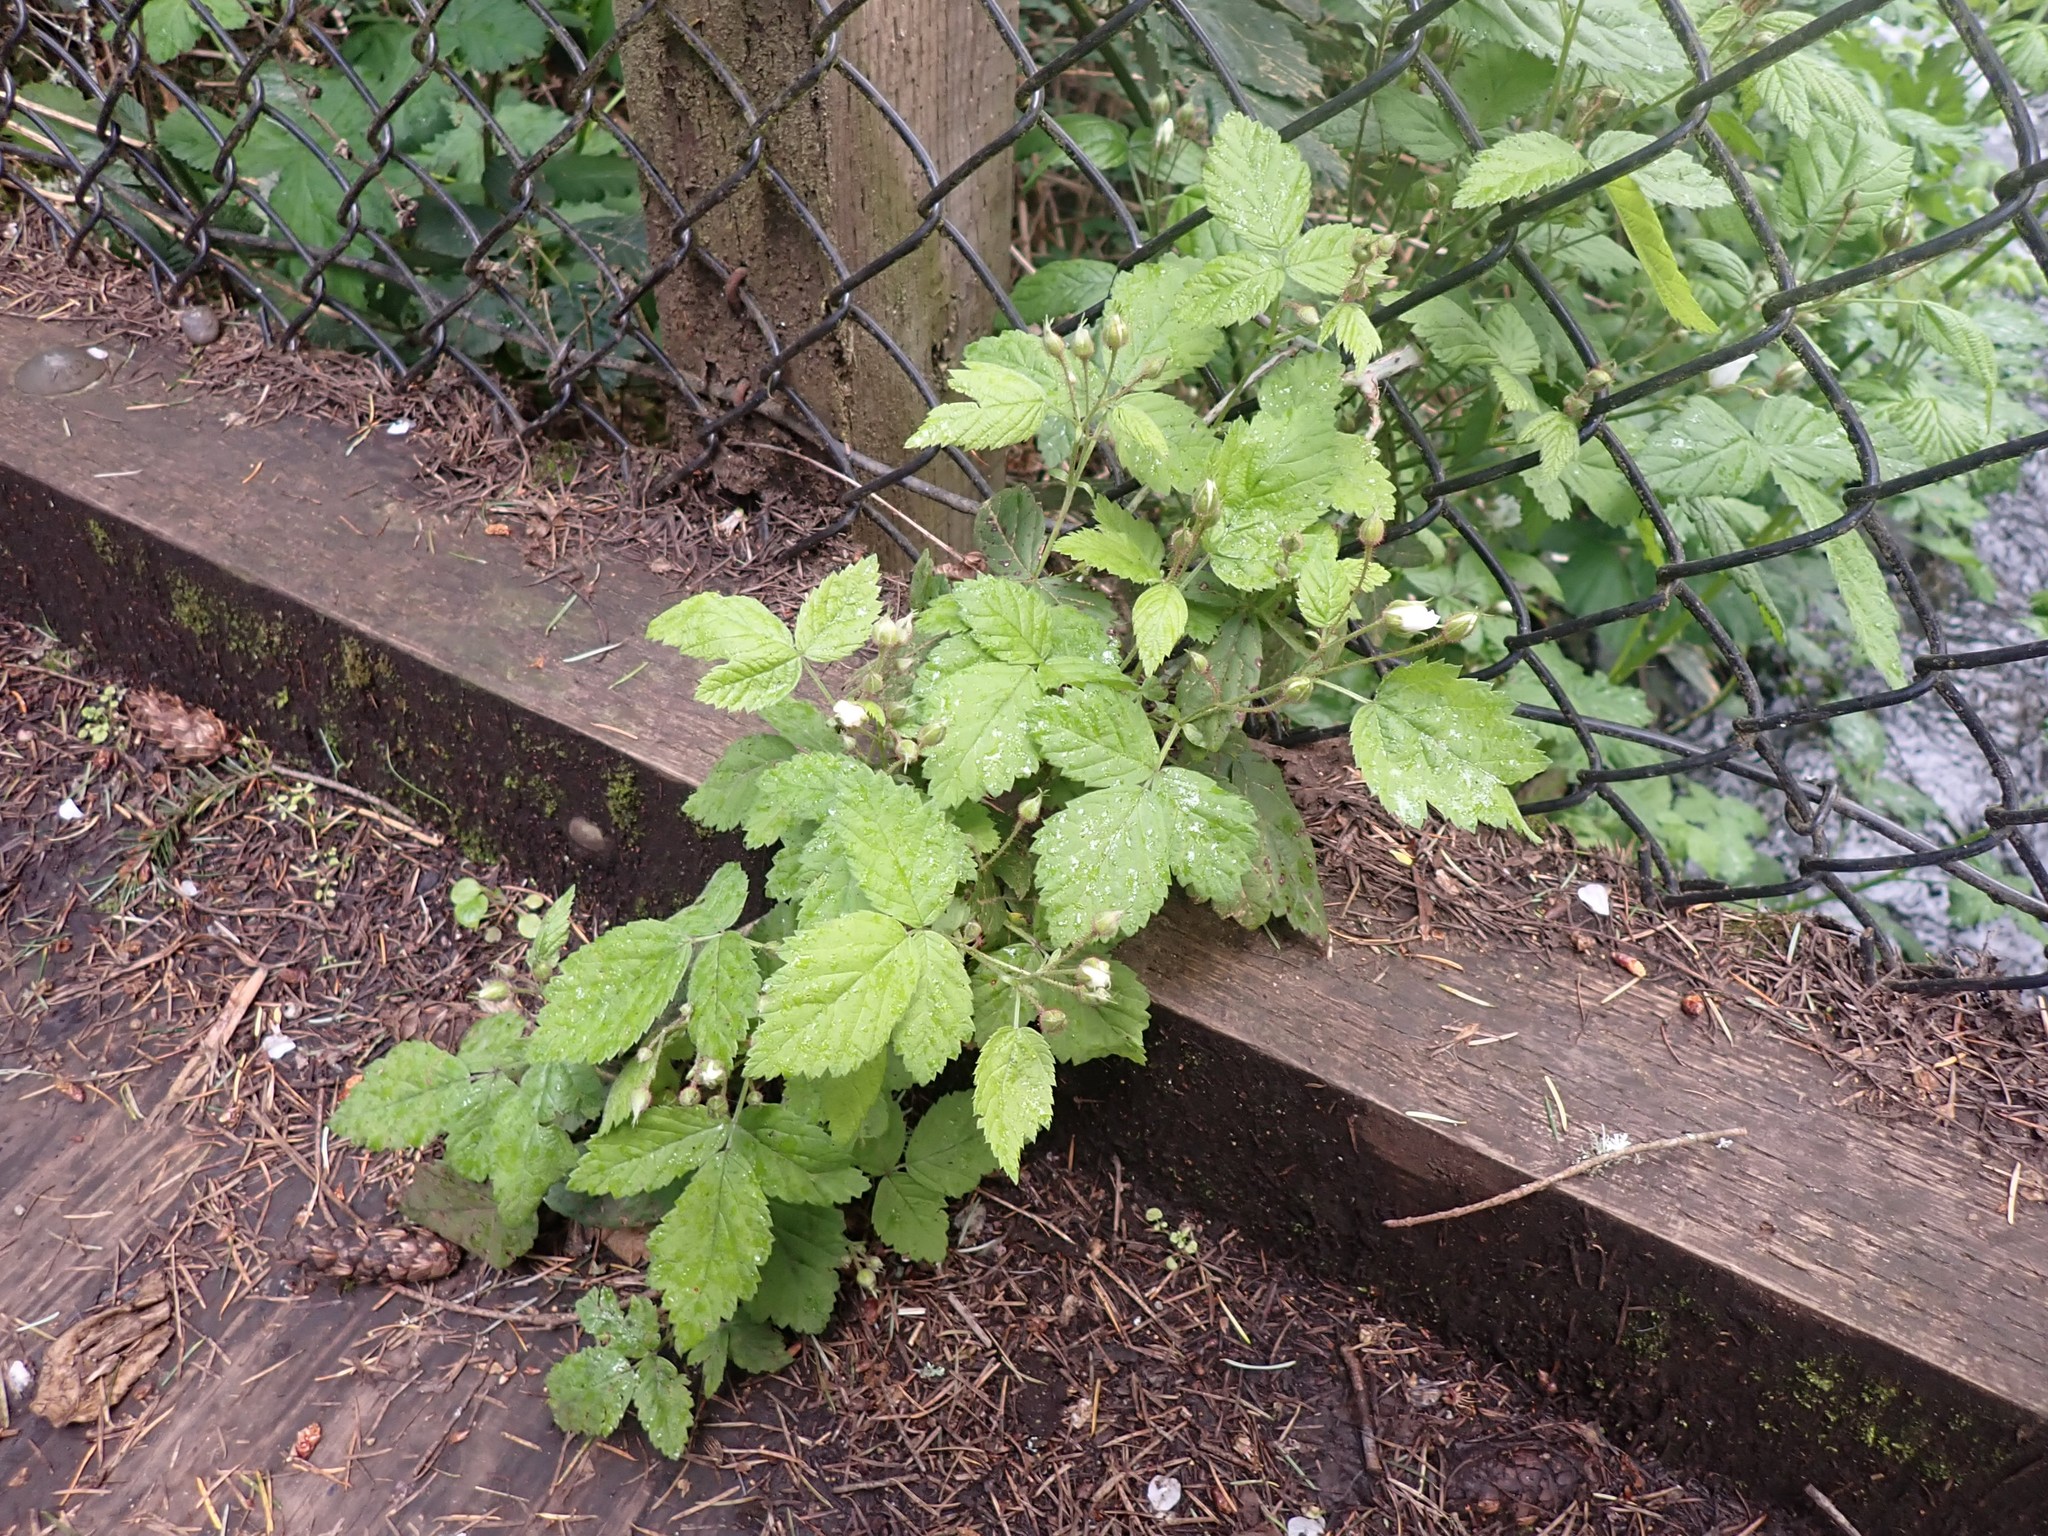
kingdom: Plantae
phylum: Tracheophyta
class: Magnoliopsida
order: Rosales
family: Rosaceae
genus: Rubus
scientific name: Rubus ursinus
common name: Pacific blackberry
